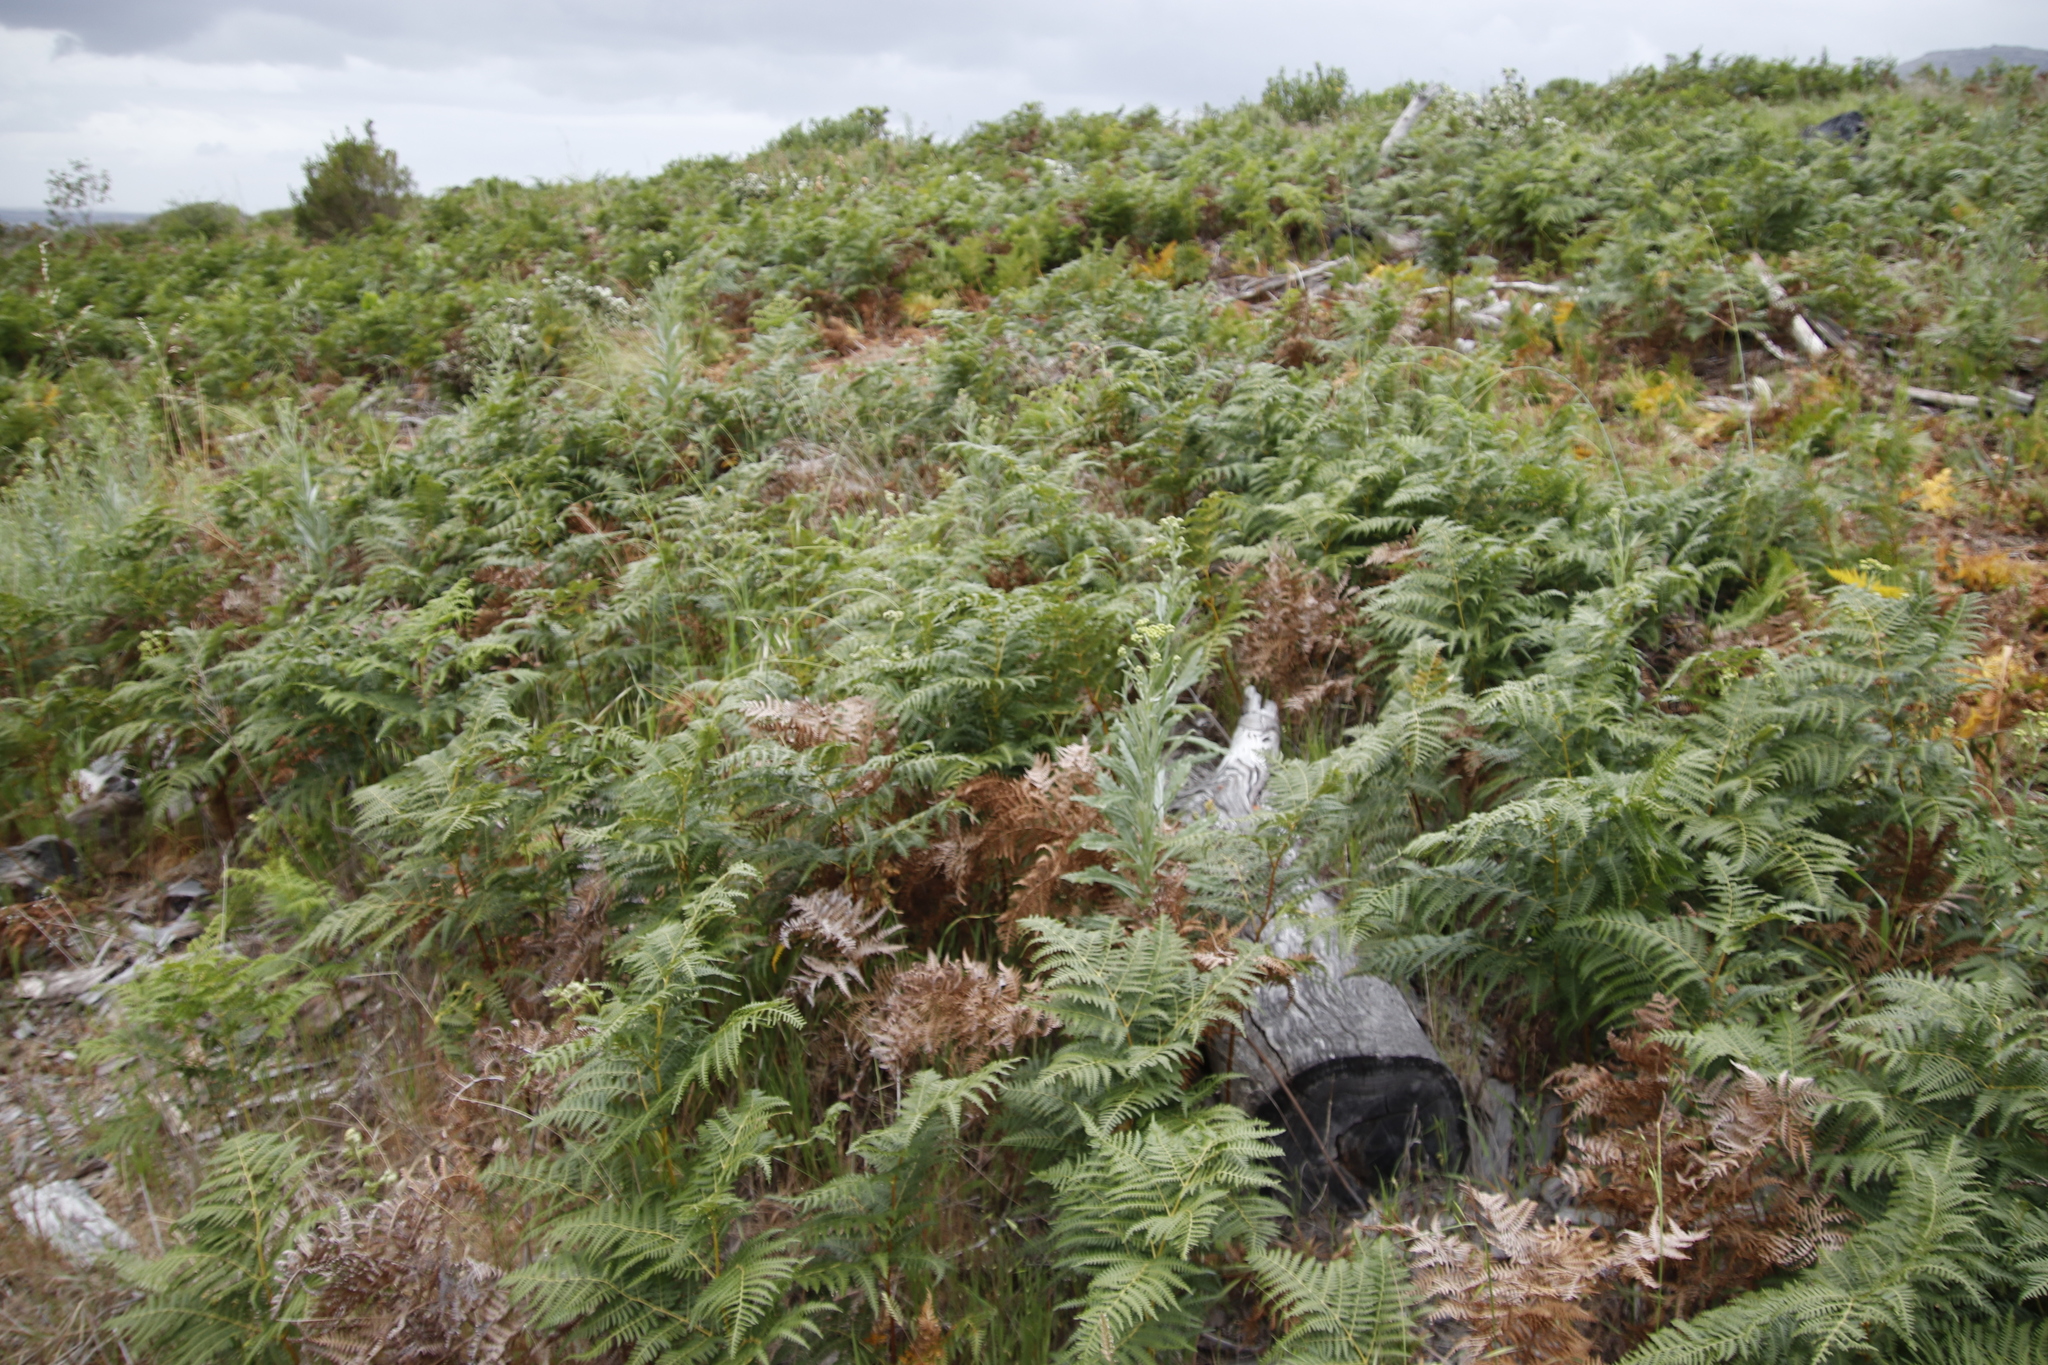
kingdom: Plantae
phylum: Tracheophyta
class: Polypodiopsida
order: Polypodiales
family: Dennstaedtiaceae
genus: Pteridium
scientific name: Pteridium aquilinum
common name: Bracken
